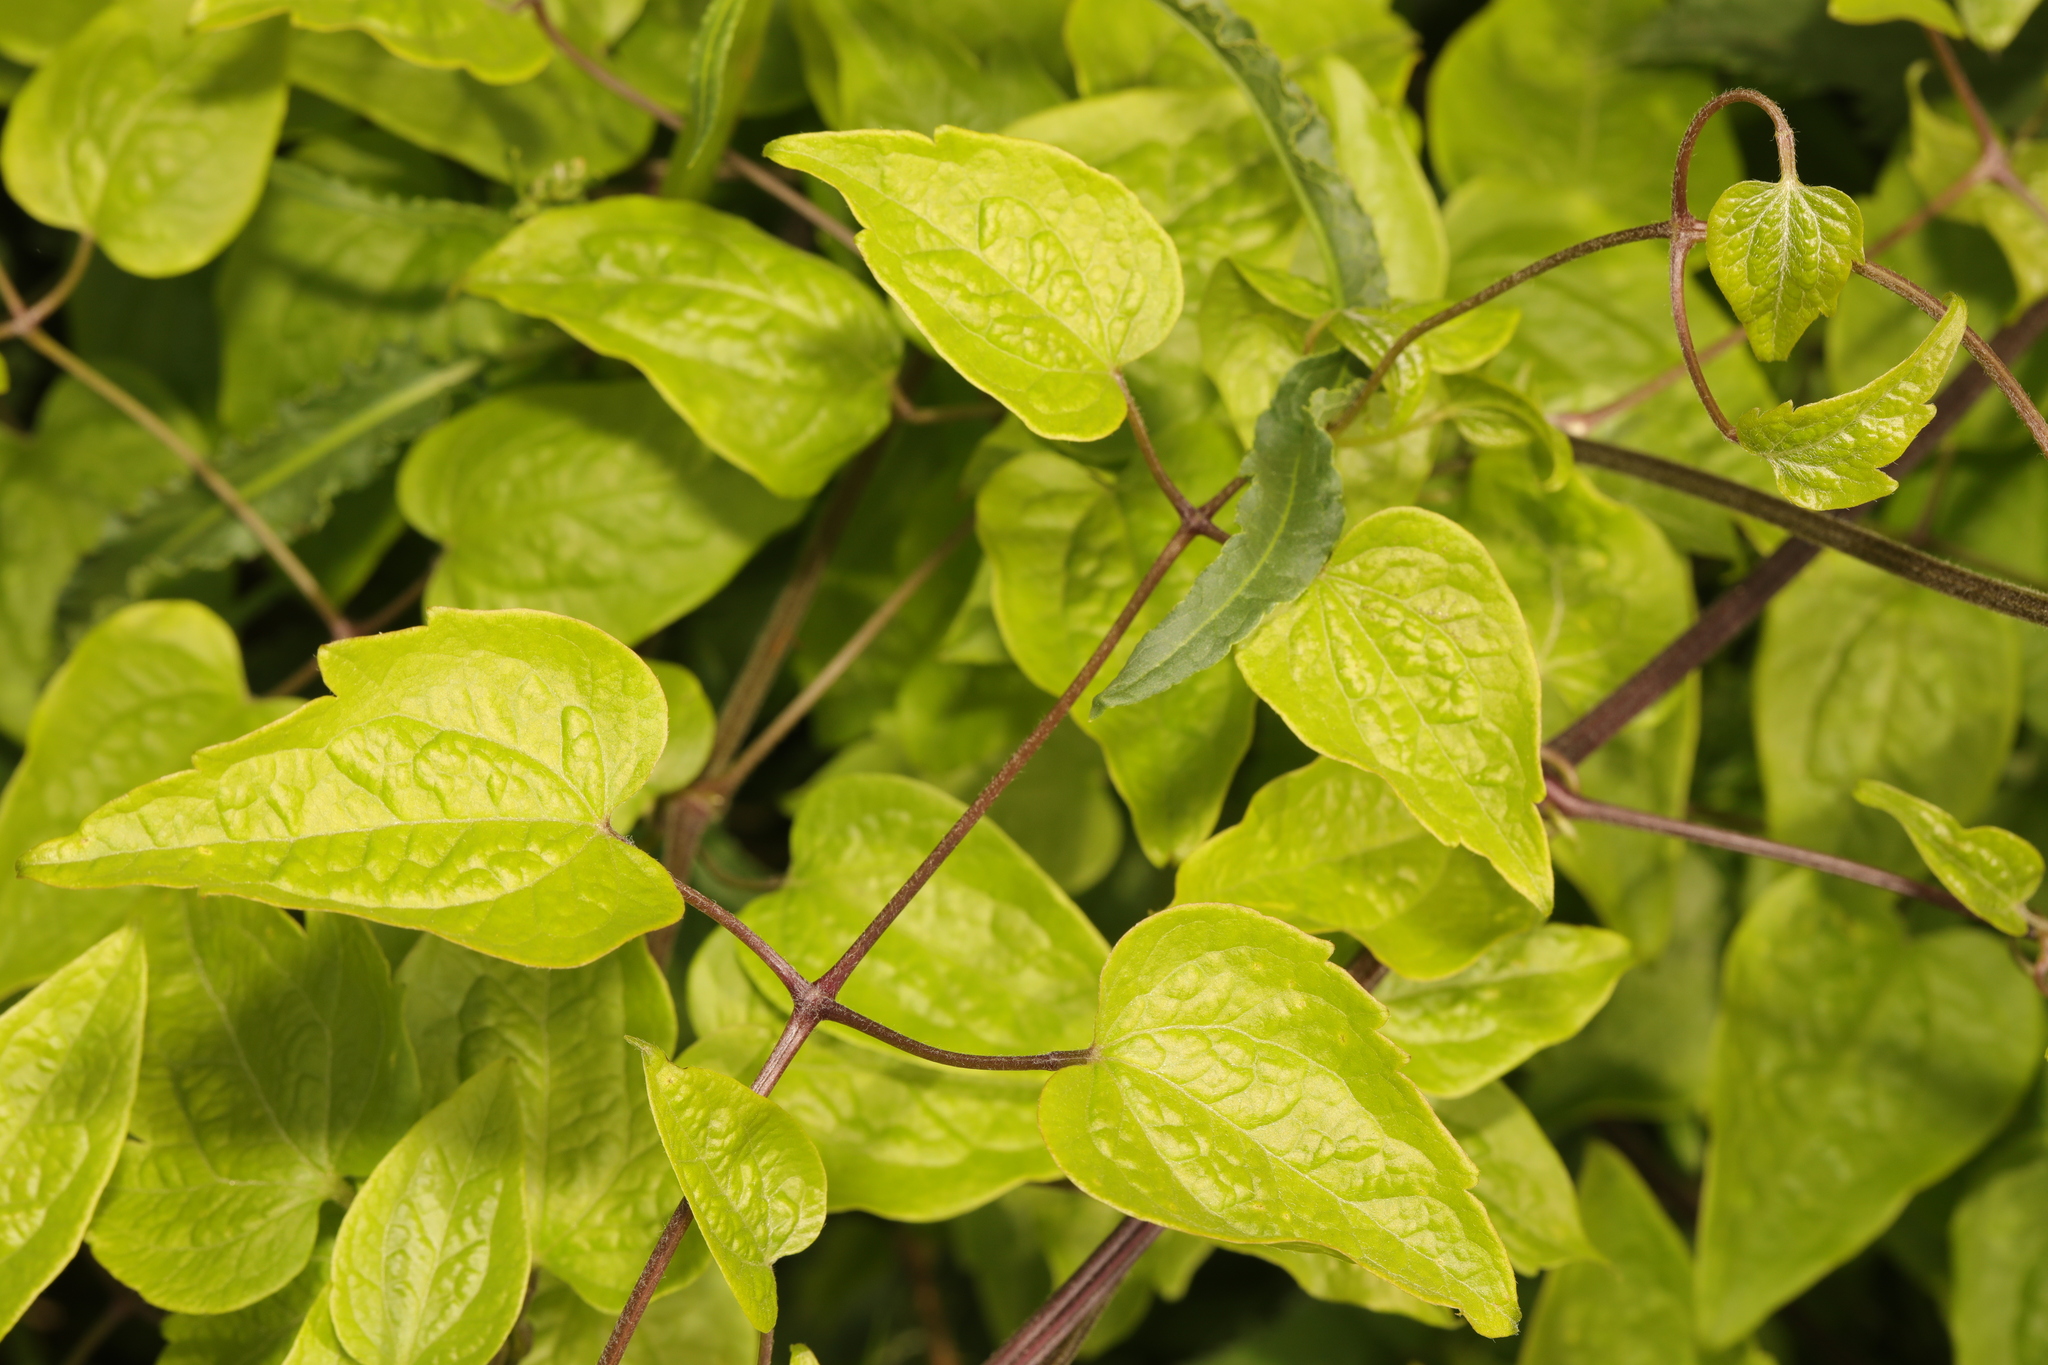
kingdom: Plantae
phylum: Tracheophyta
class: Magnoliopsida
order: Ranunculales
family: Ranunculaceae
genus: Clematis
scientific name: Clematis vitalba
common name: Evergreen clematis
